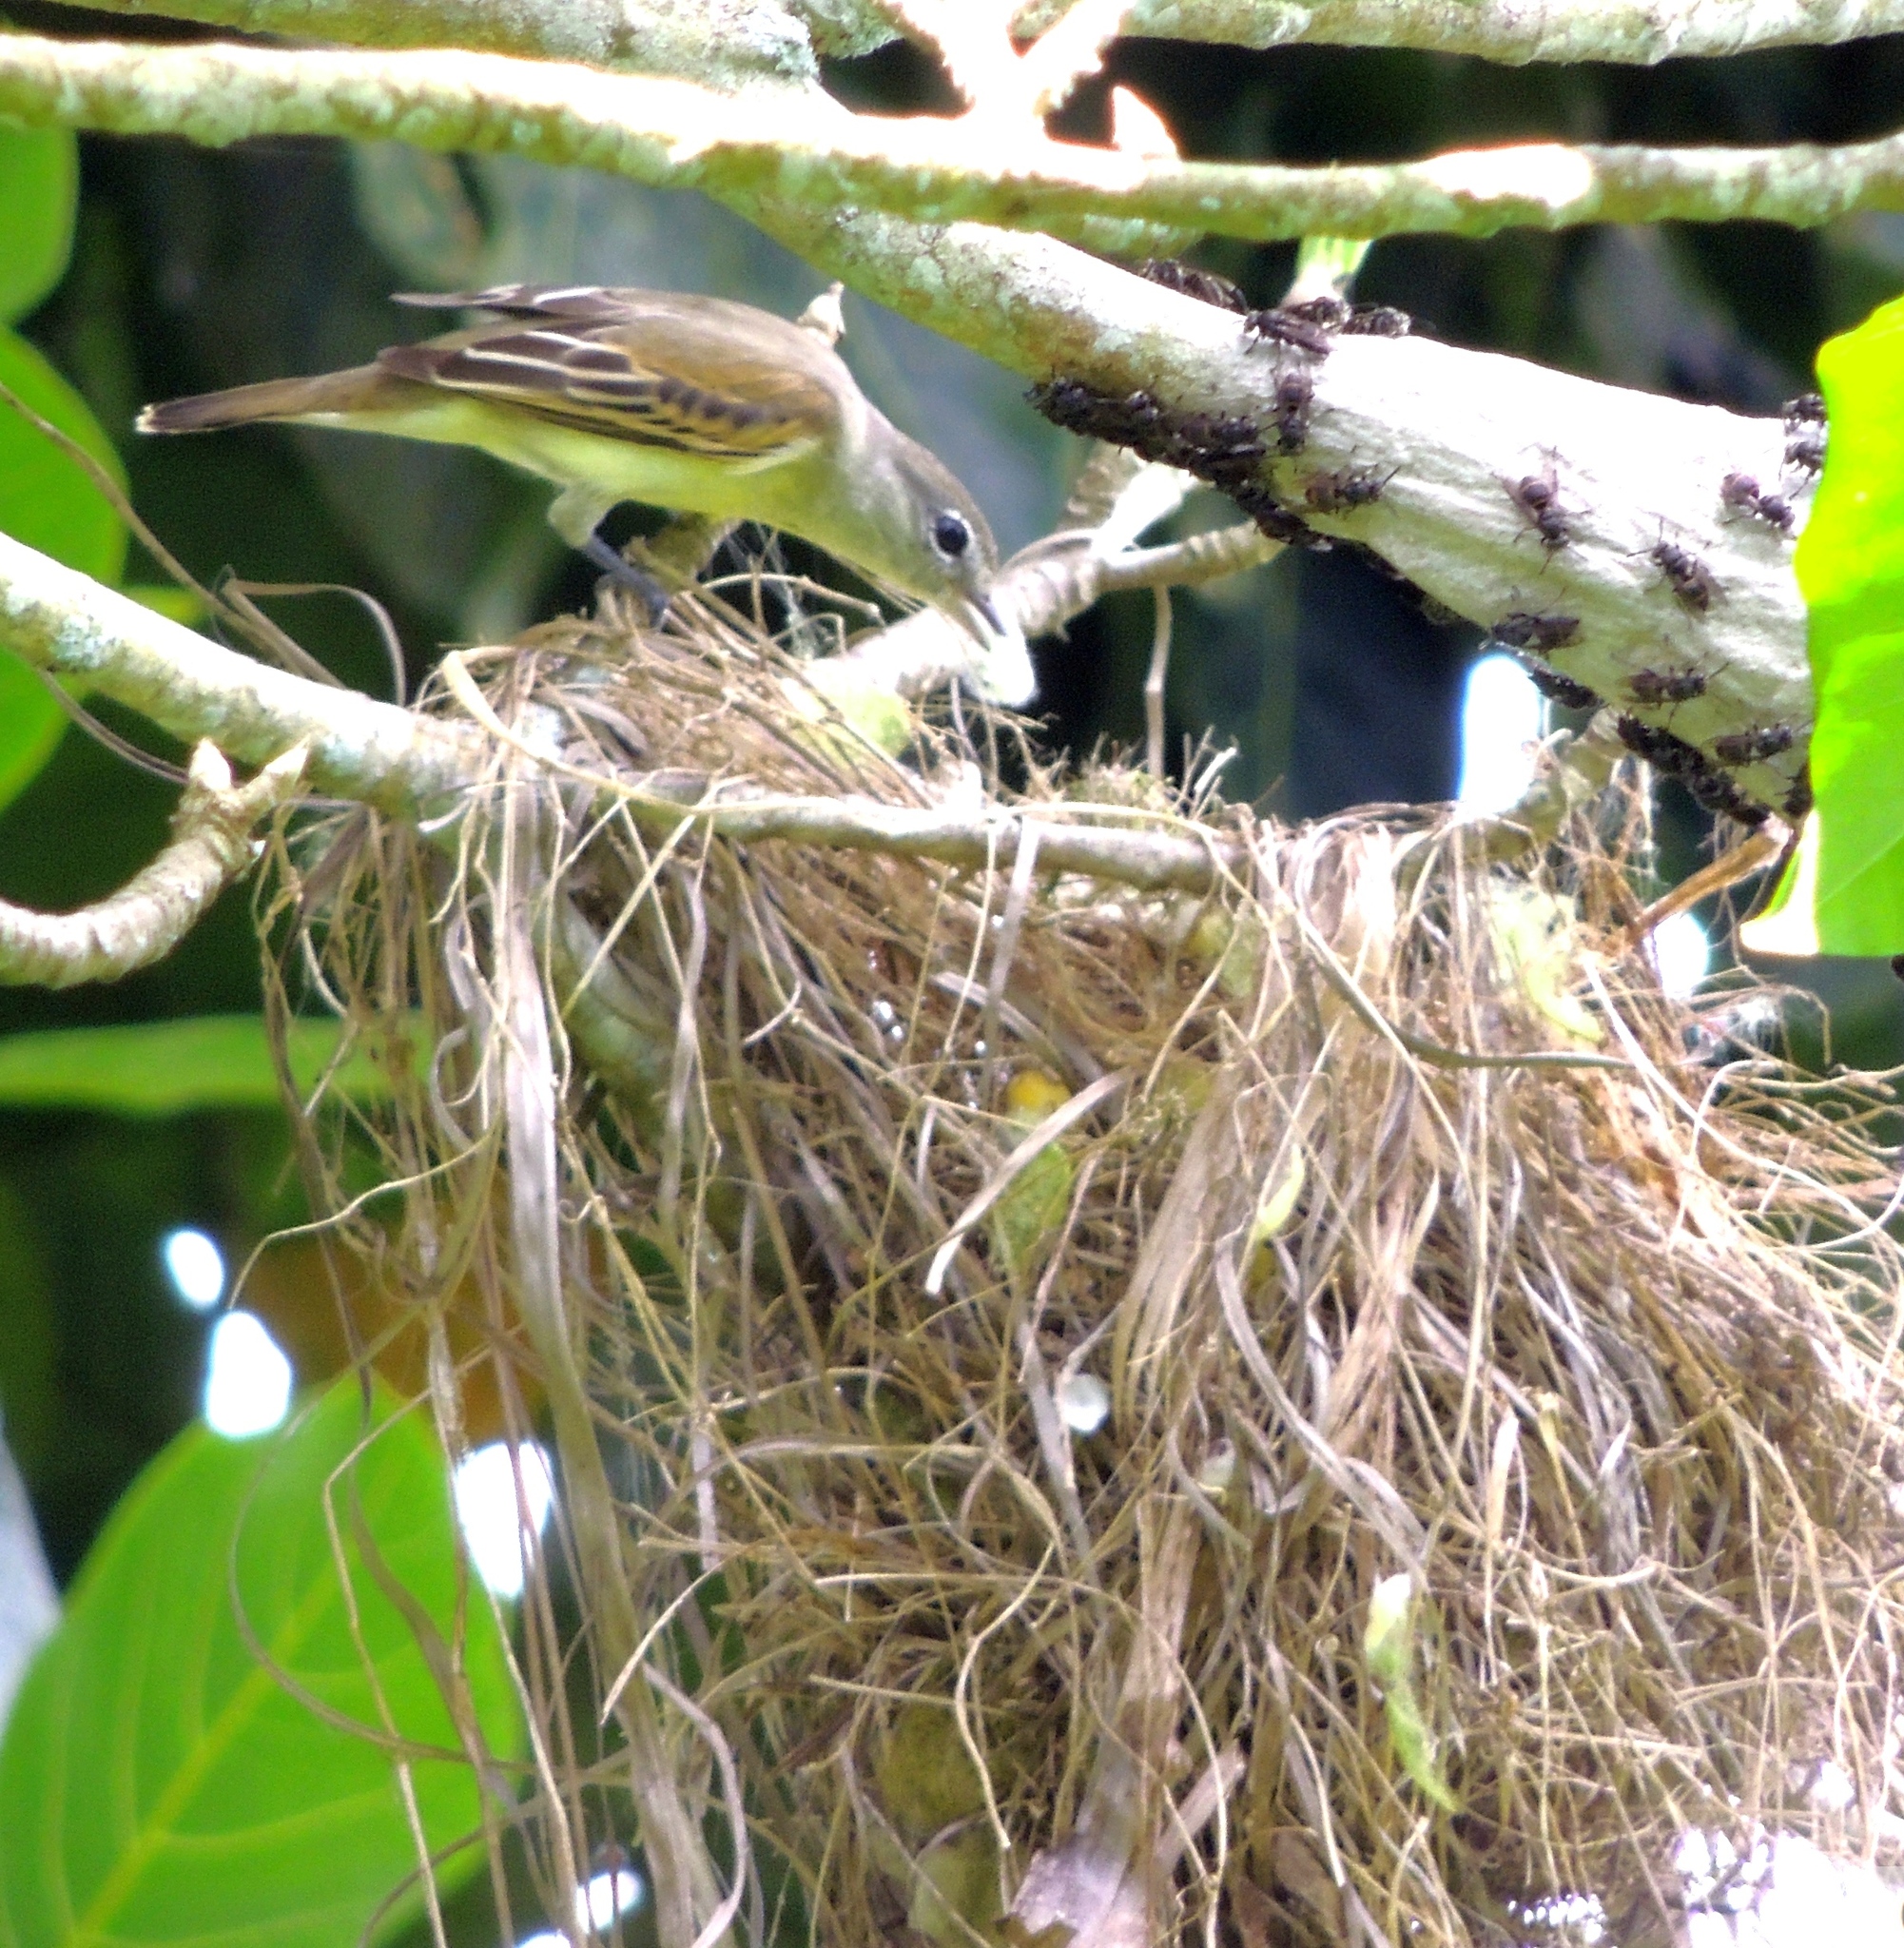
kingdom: Animalia
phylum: Chordata
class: Aves
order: Passeriformes
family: Cotingidae
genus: Pachyramphus
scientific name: Pachyramphus polychopterus
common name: White-winged becard
